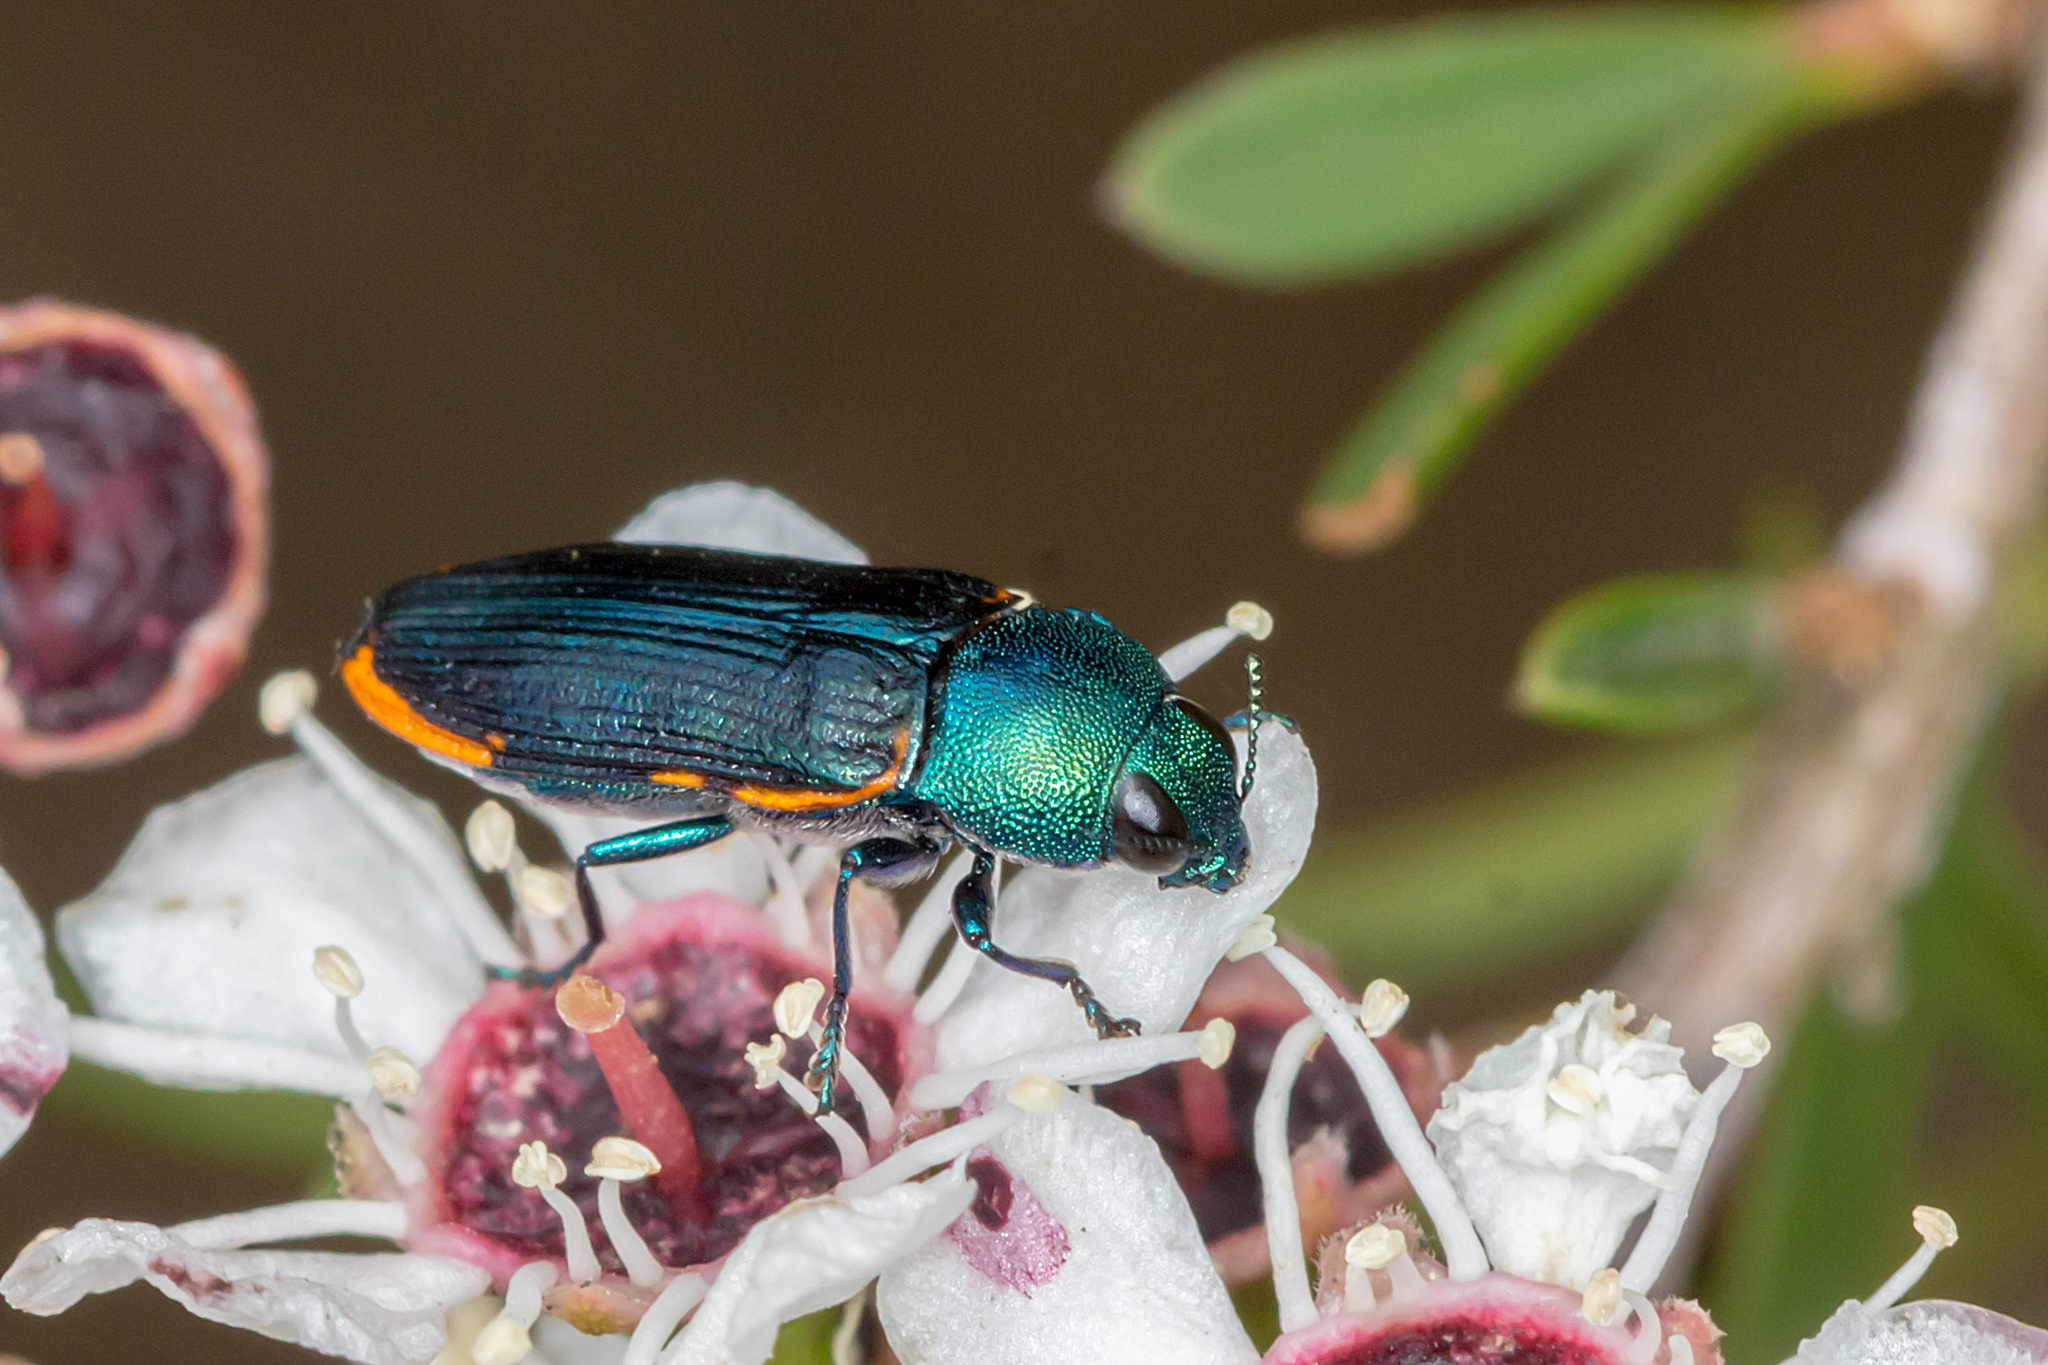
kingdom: Animalia
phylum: Arthropoda
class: Insecta
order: Coleoptera
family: Buprestidae
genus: Castiarina
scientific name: Castiarina scalaris
